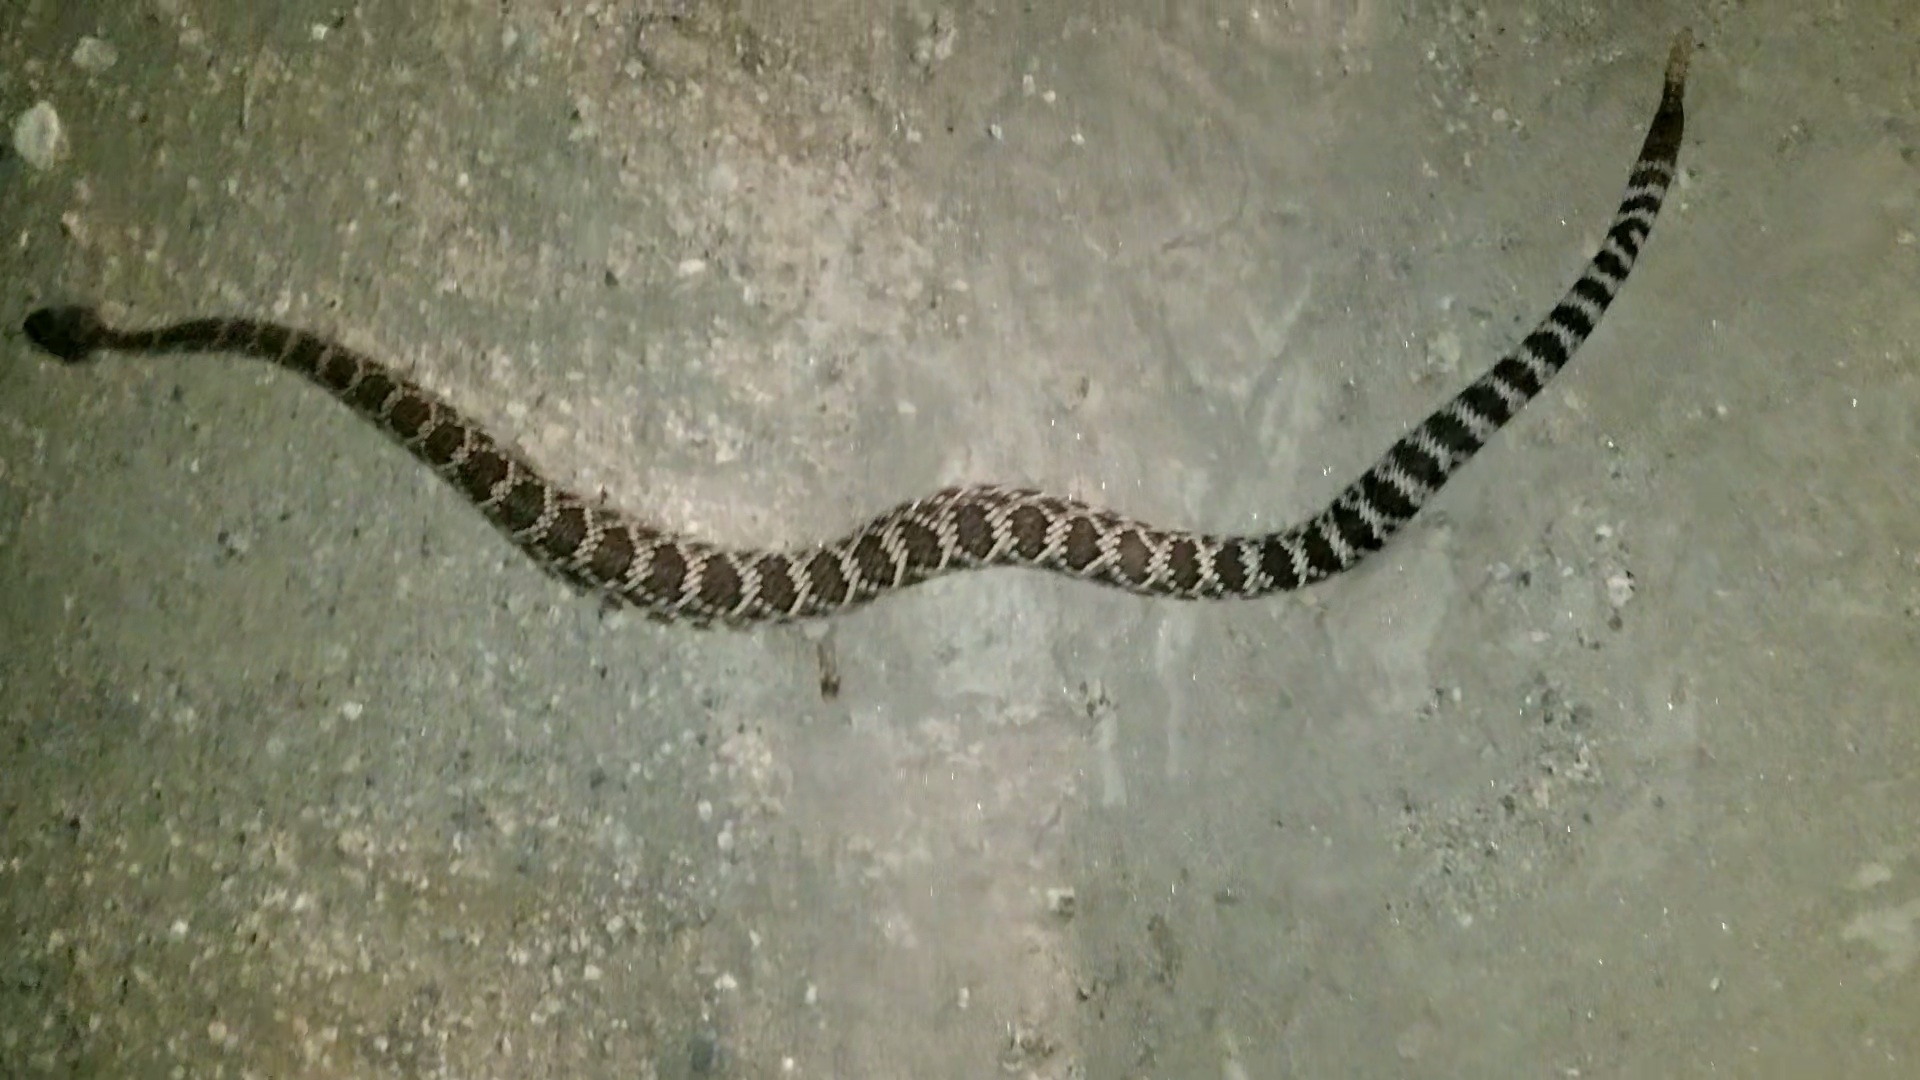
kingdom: Animalia
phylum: Chordata
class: Squamata
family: Viperidae
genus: Crotalus
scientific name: Crotalus oreganus
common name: Abyssus
